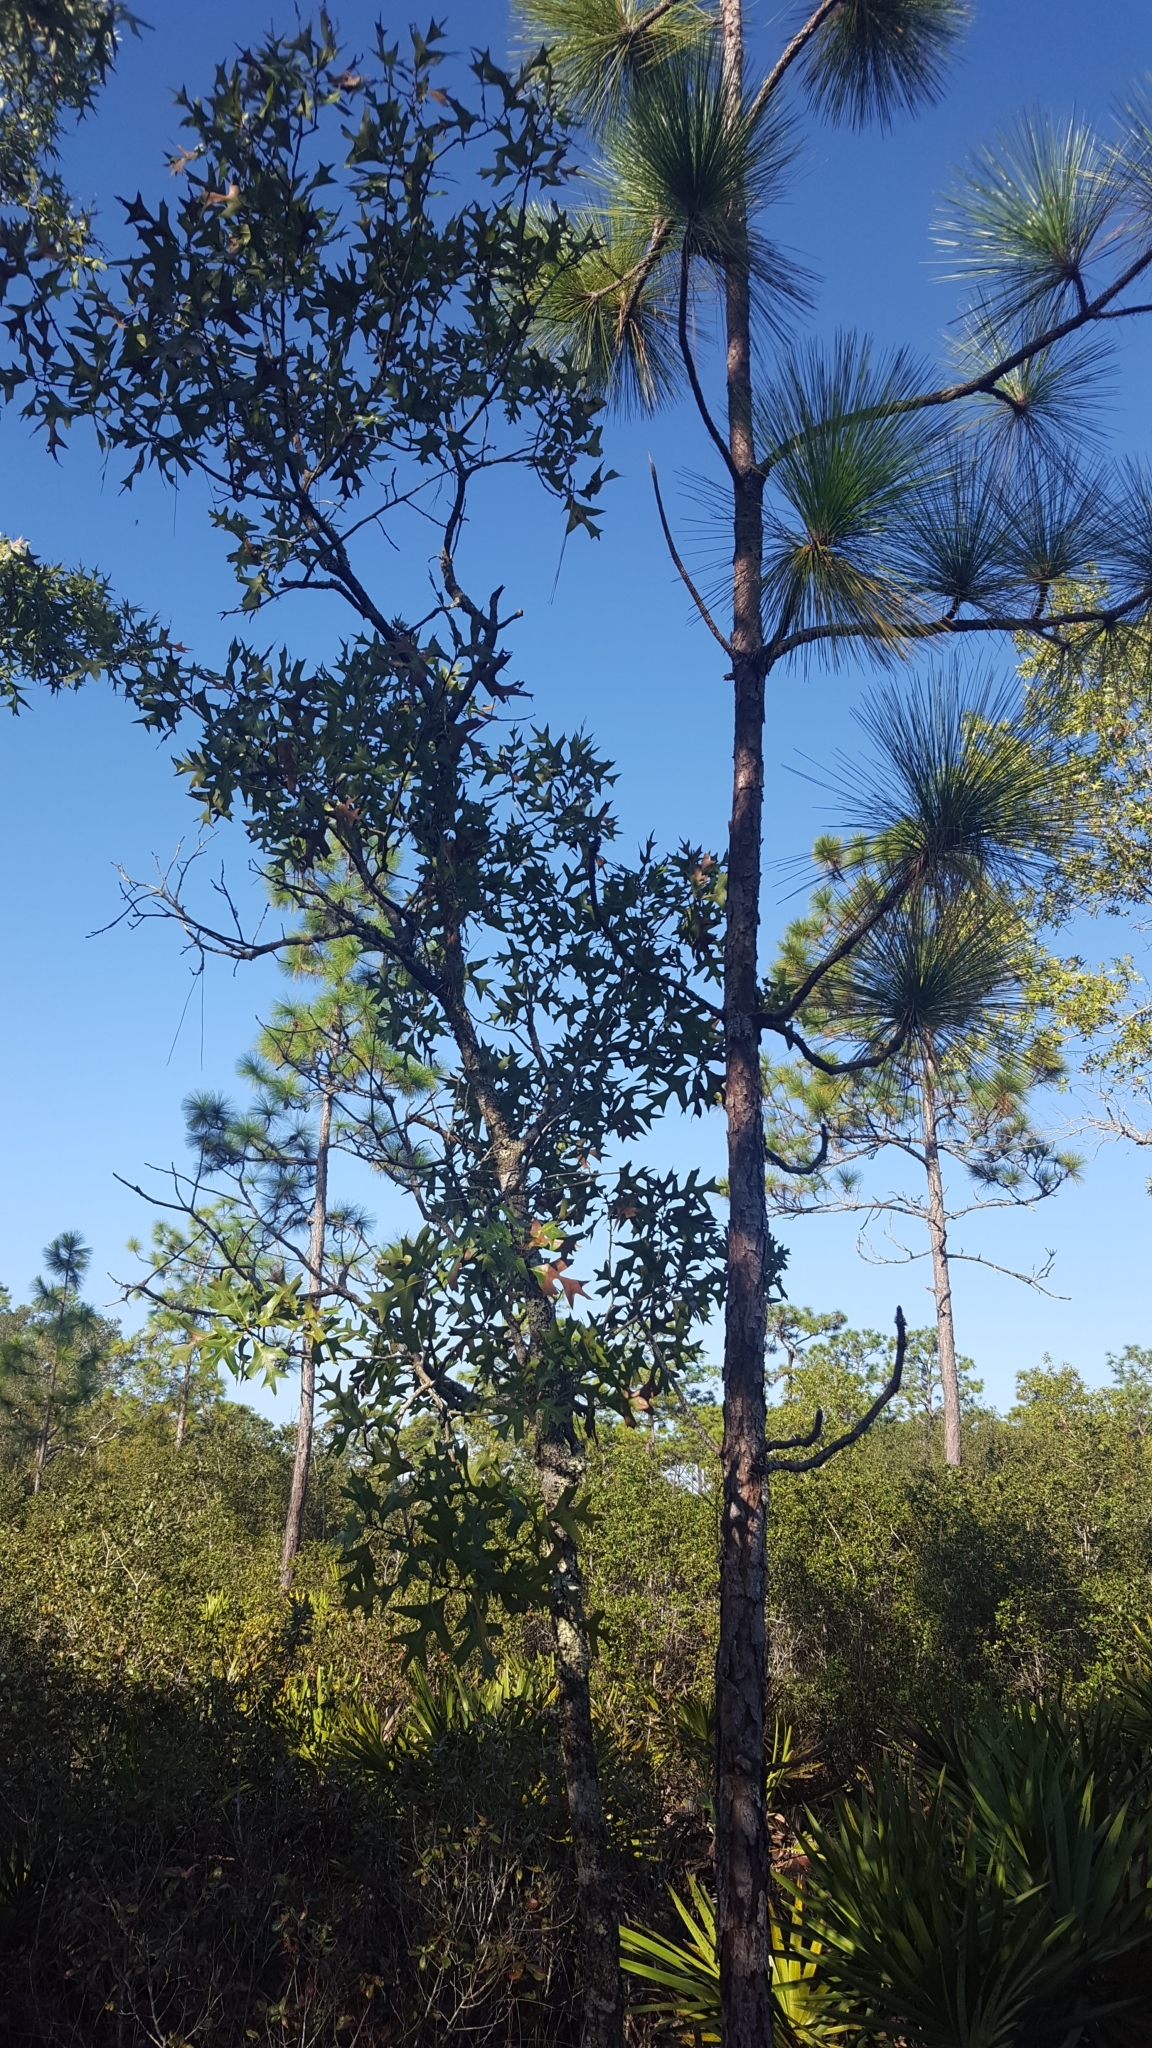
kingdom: Plantae
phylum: Tracheophyta
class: Magnoliopsida
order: Fagales
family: Fagaceae
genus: Quercus
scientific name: Quercus laevis
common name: Turkey oak
